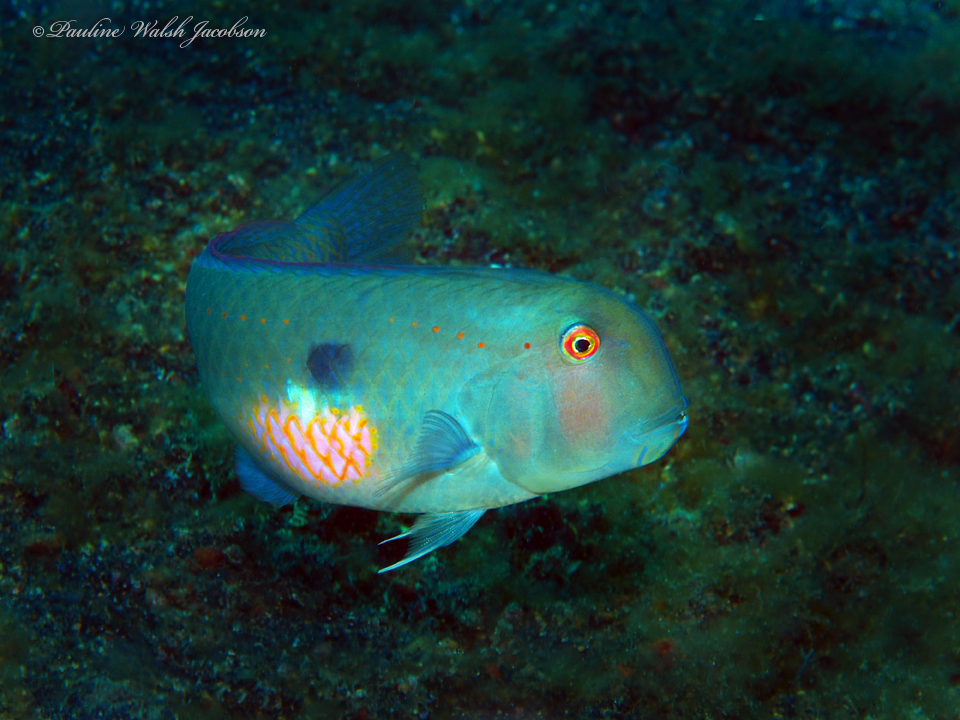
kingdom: Animalia
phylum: Chordata
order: Perciformes
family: Labridae
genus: Iniistius
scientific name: Iniistius pentadactylus
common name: Fivefinger razorfish
